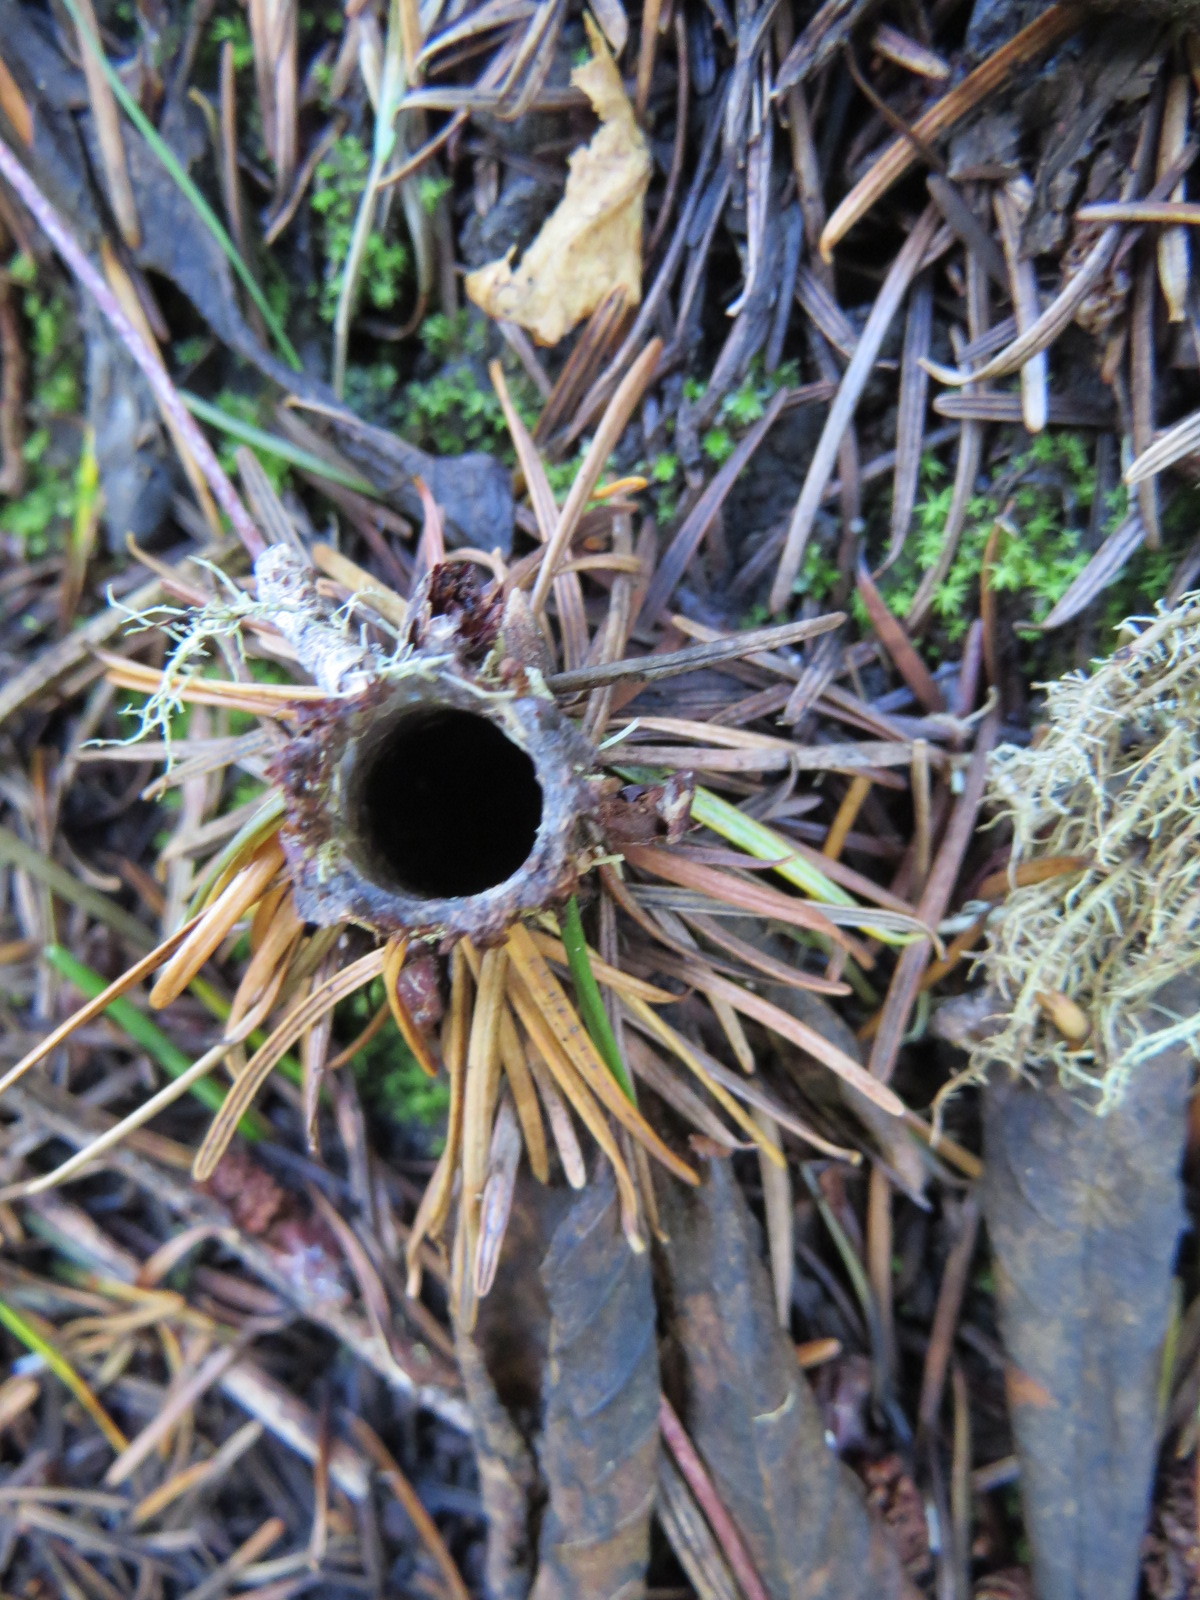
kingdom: Animalia
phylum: Arthropoda
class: Arachnida
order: Araneae
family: Antrodiaetidae
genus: Atypoides
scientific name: Atypoides riversi
